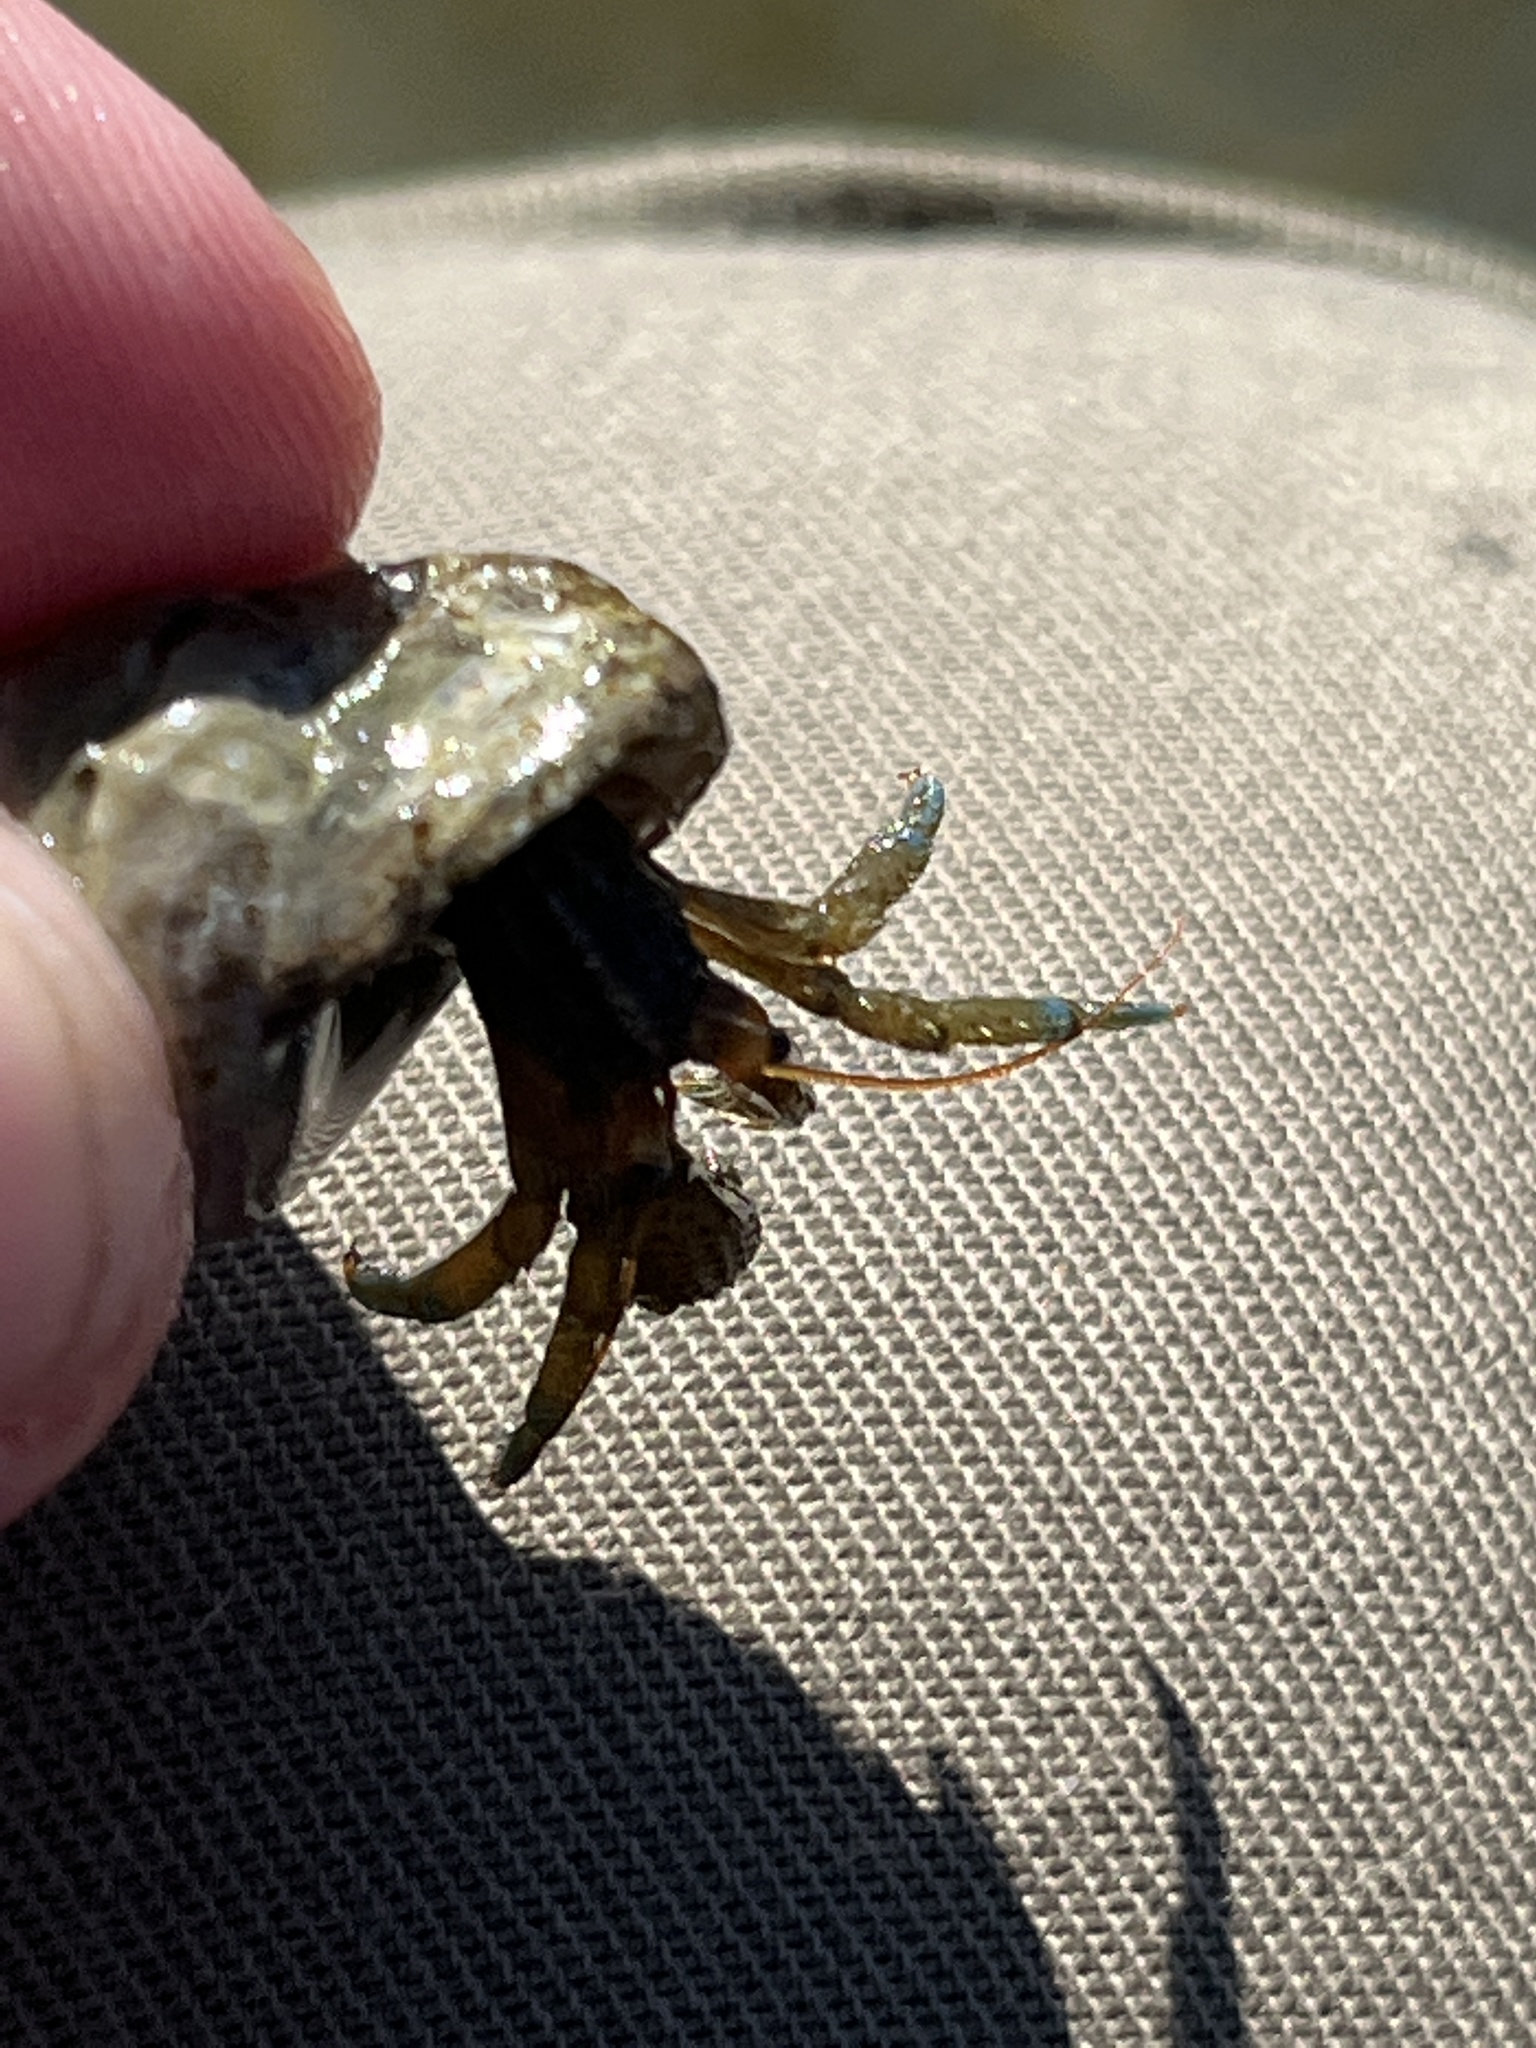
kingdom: Animalia
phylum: Arthropoda
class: Malacostraca
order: Decapoda
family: Paguridae
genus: Pagurus
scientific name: Pagurus samuelis
